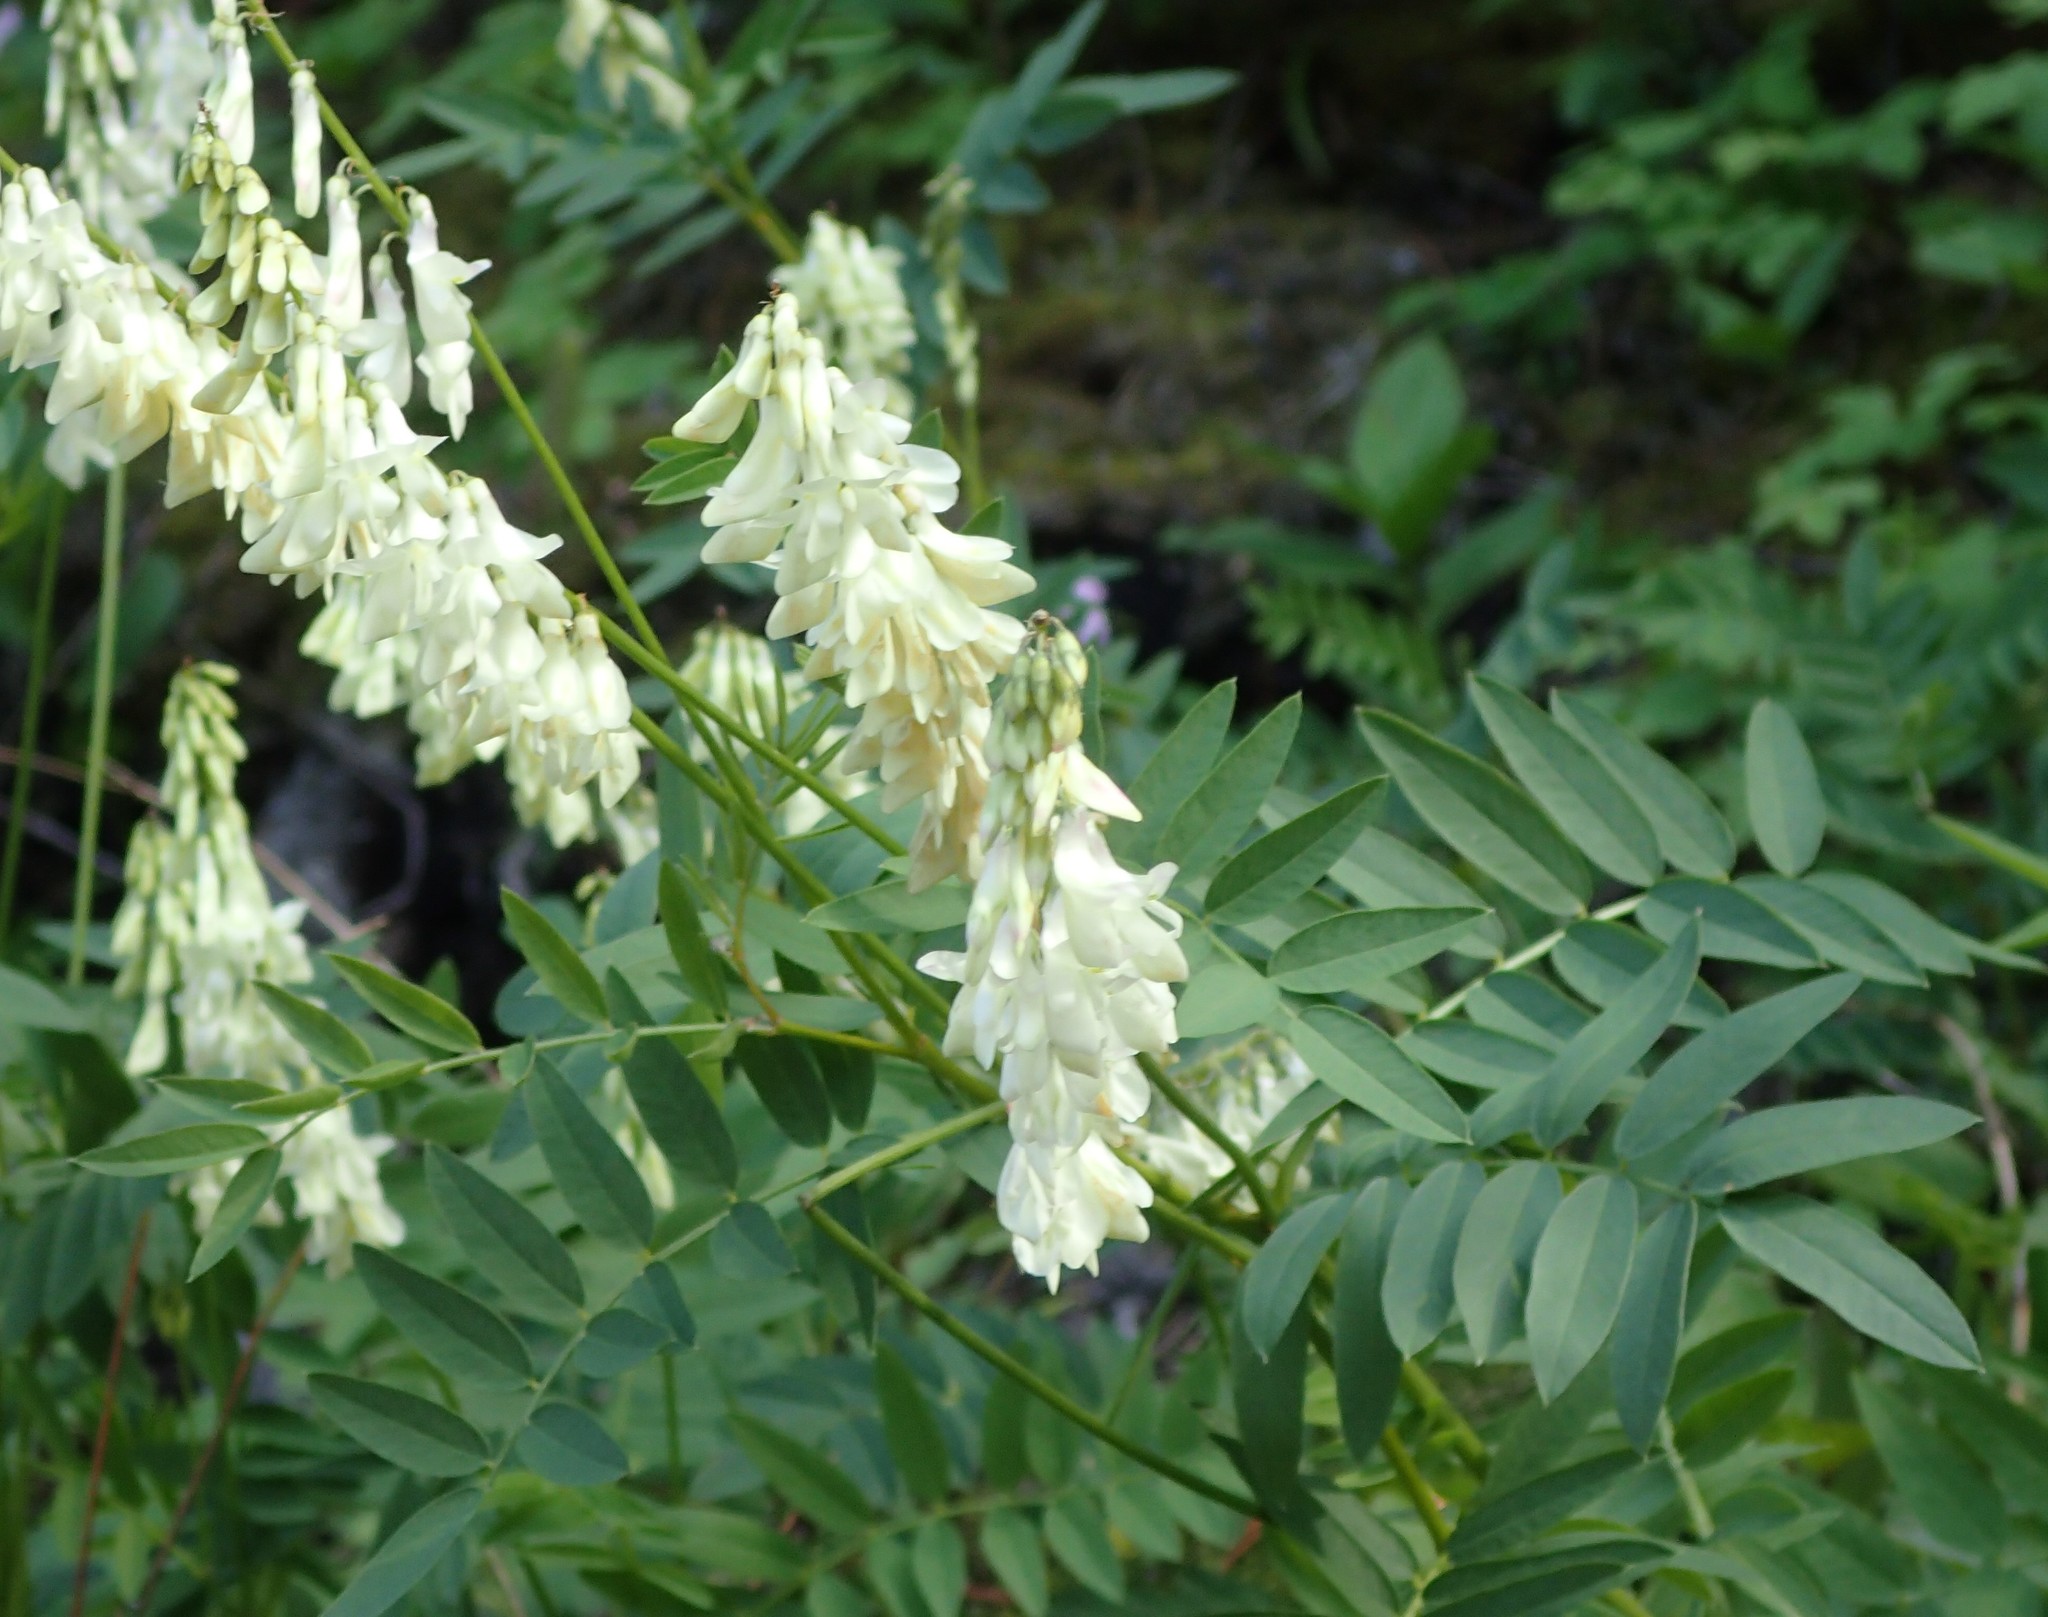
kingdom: Plantae
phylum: Tracheophyta
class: Magnoliopsida
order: Fabales
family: Fabaceae
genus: Hedysarum
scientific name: Hedysarum sulphurescens
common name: Sulphur hedysarum
